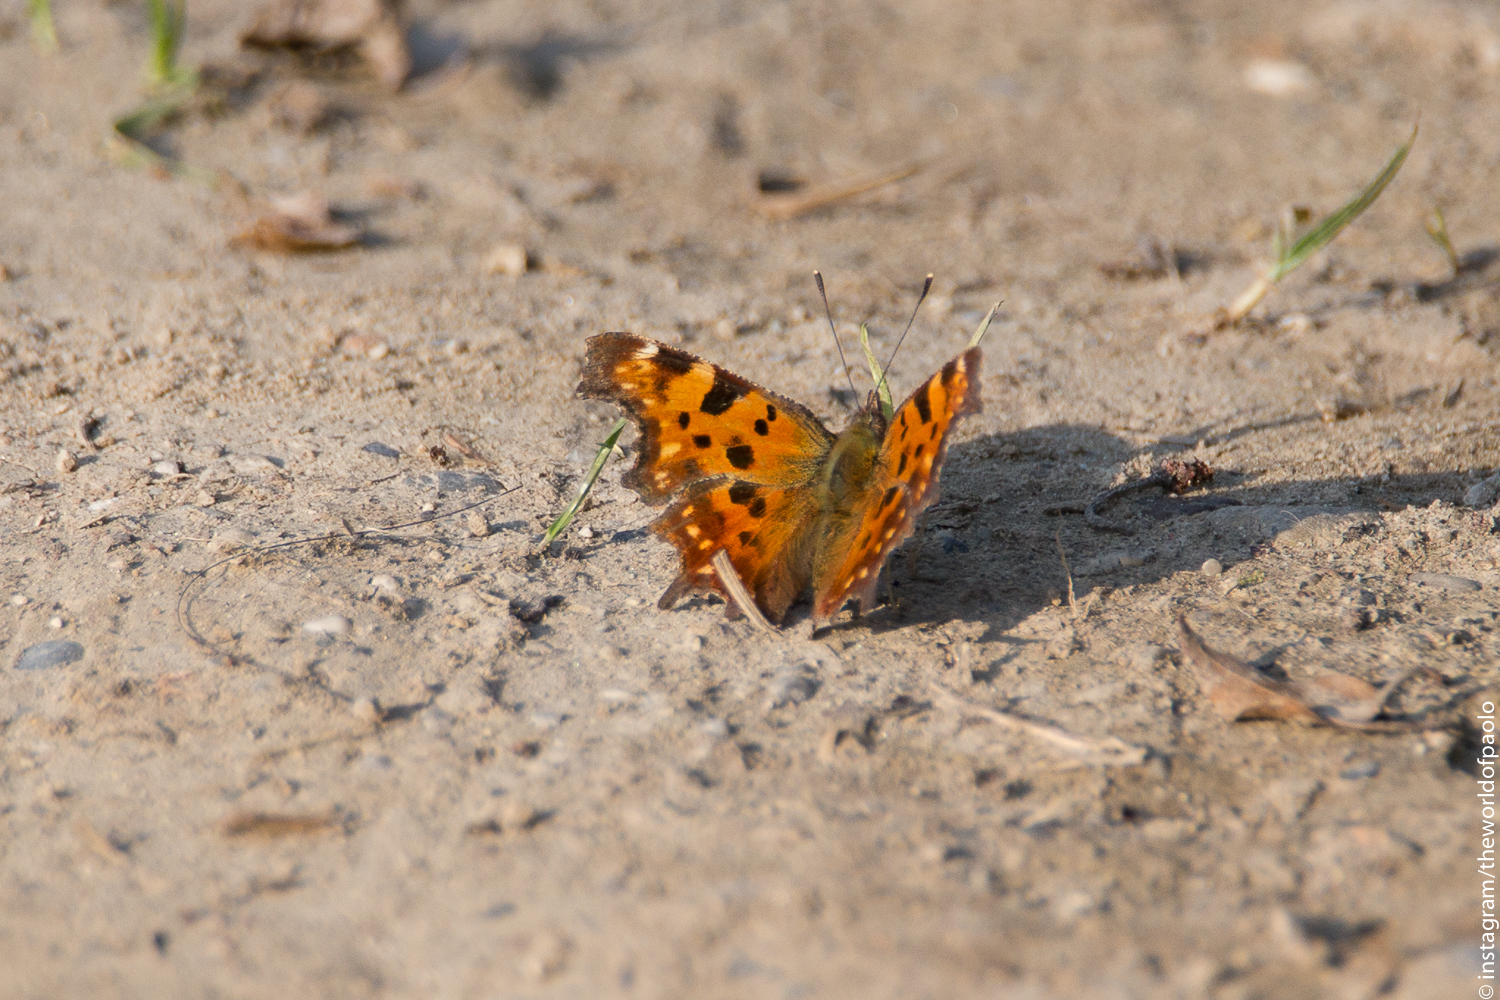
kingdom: Animalia
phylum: Arthropoda
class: Insecta
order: Lepidoptera
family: Nymphalidae
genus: Polygonia
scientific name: Polygonia c-album
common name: Comma
